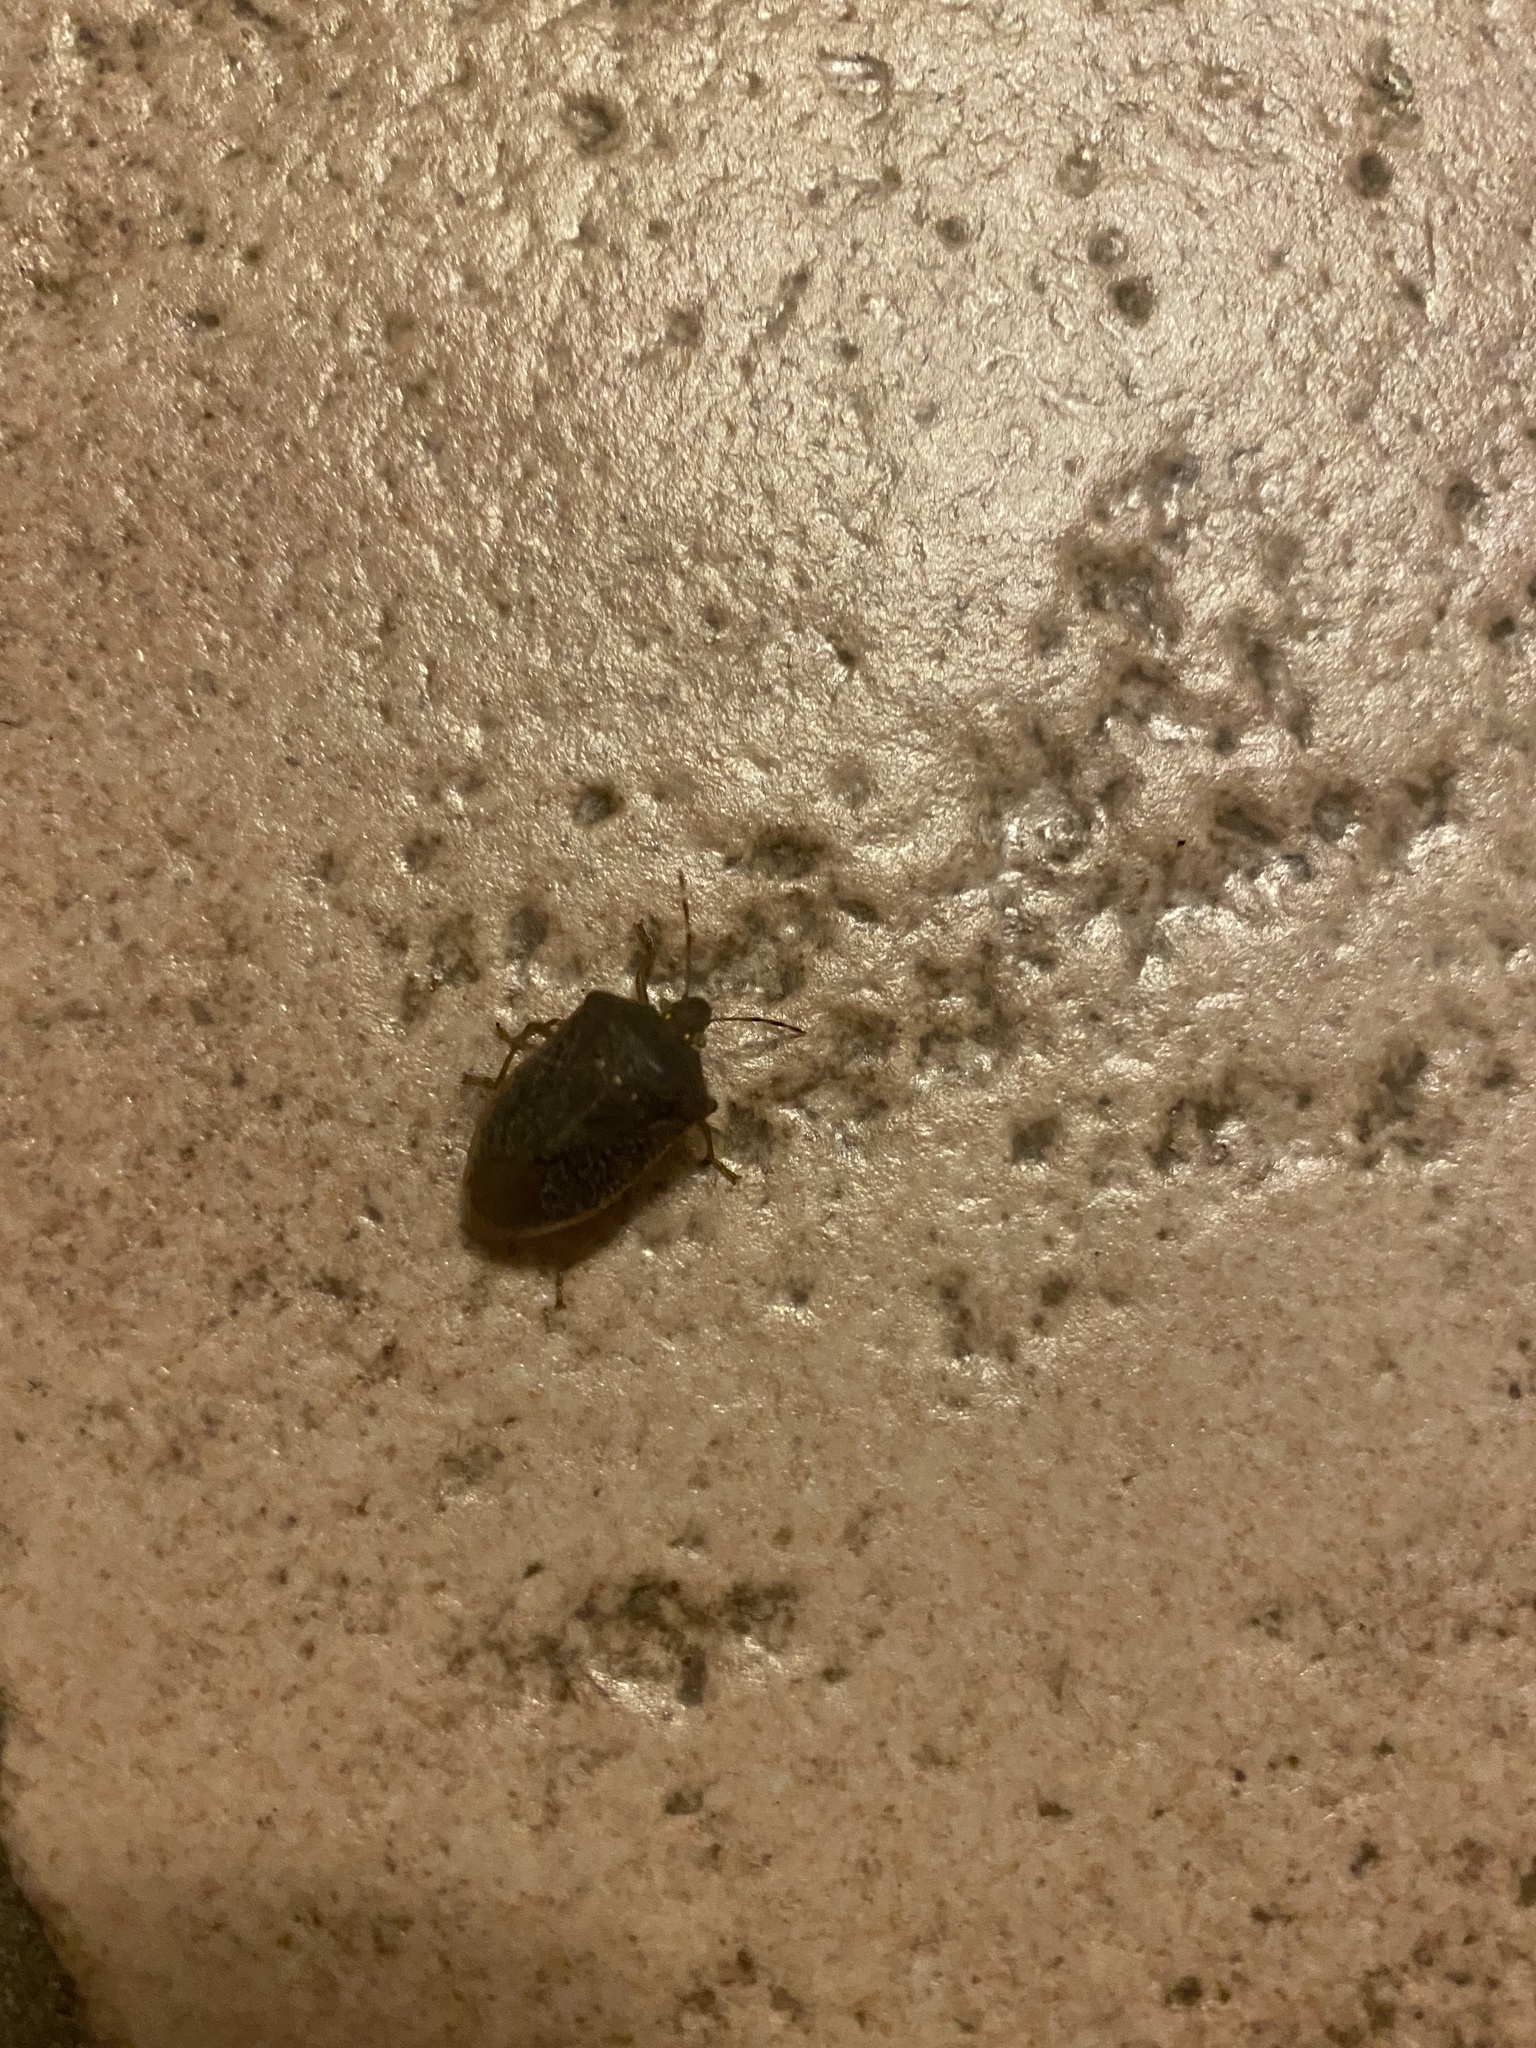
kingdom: Animalia
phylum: Arthropoda
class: Insecta
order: Hemiptera
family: Pentatomidae
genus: Nezara
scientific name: Nezara viridula
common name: Southern green stink bug
